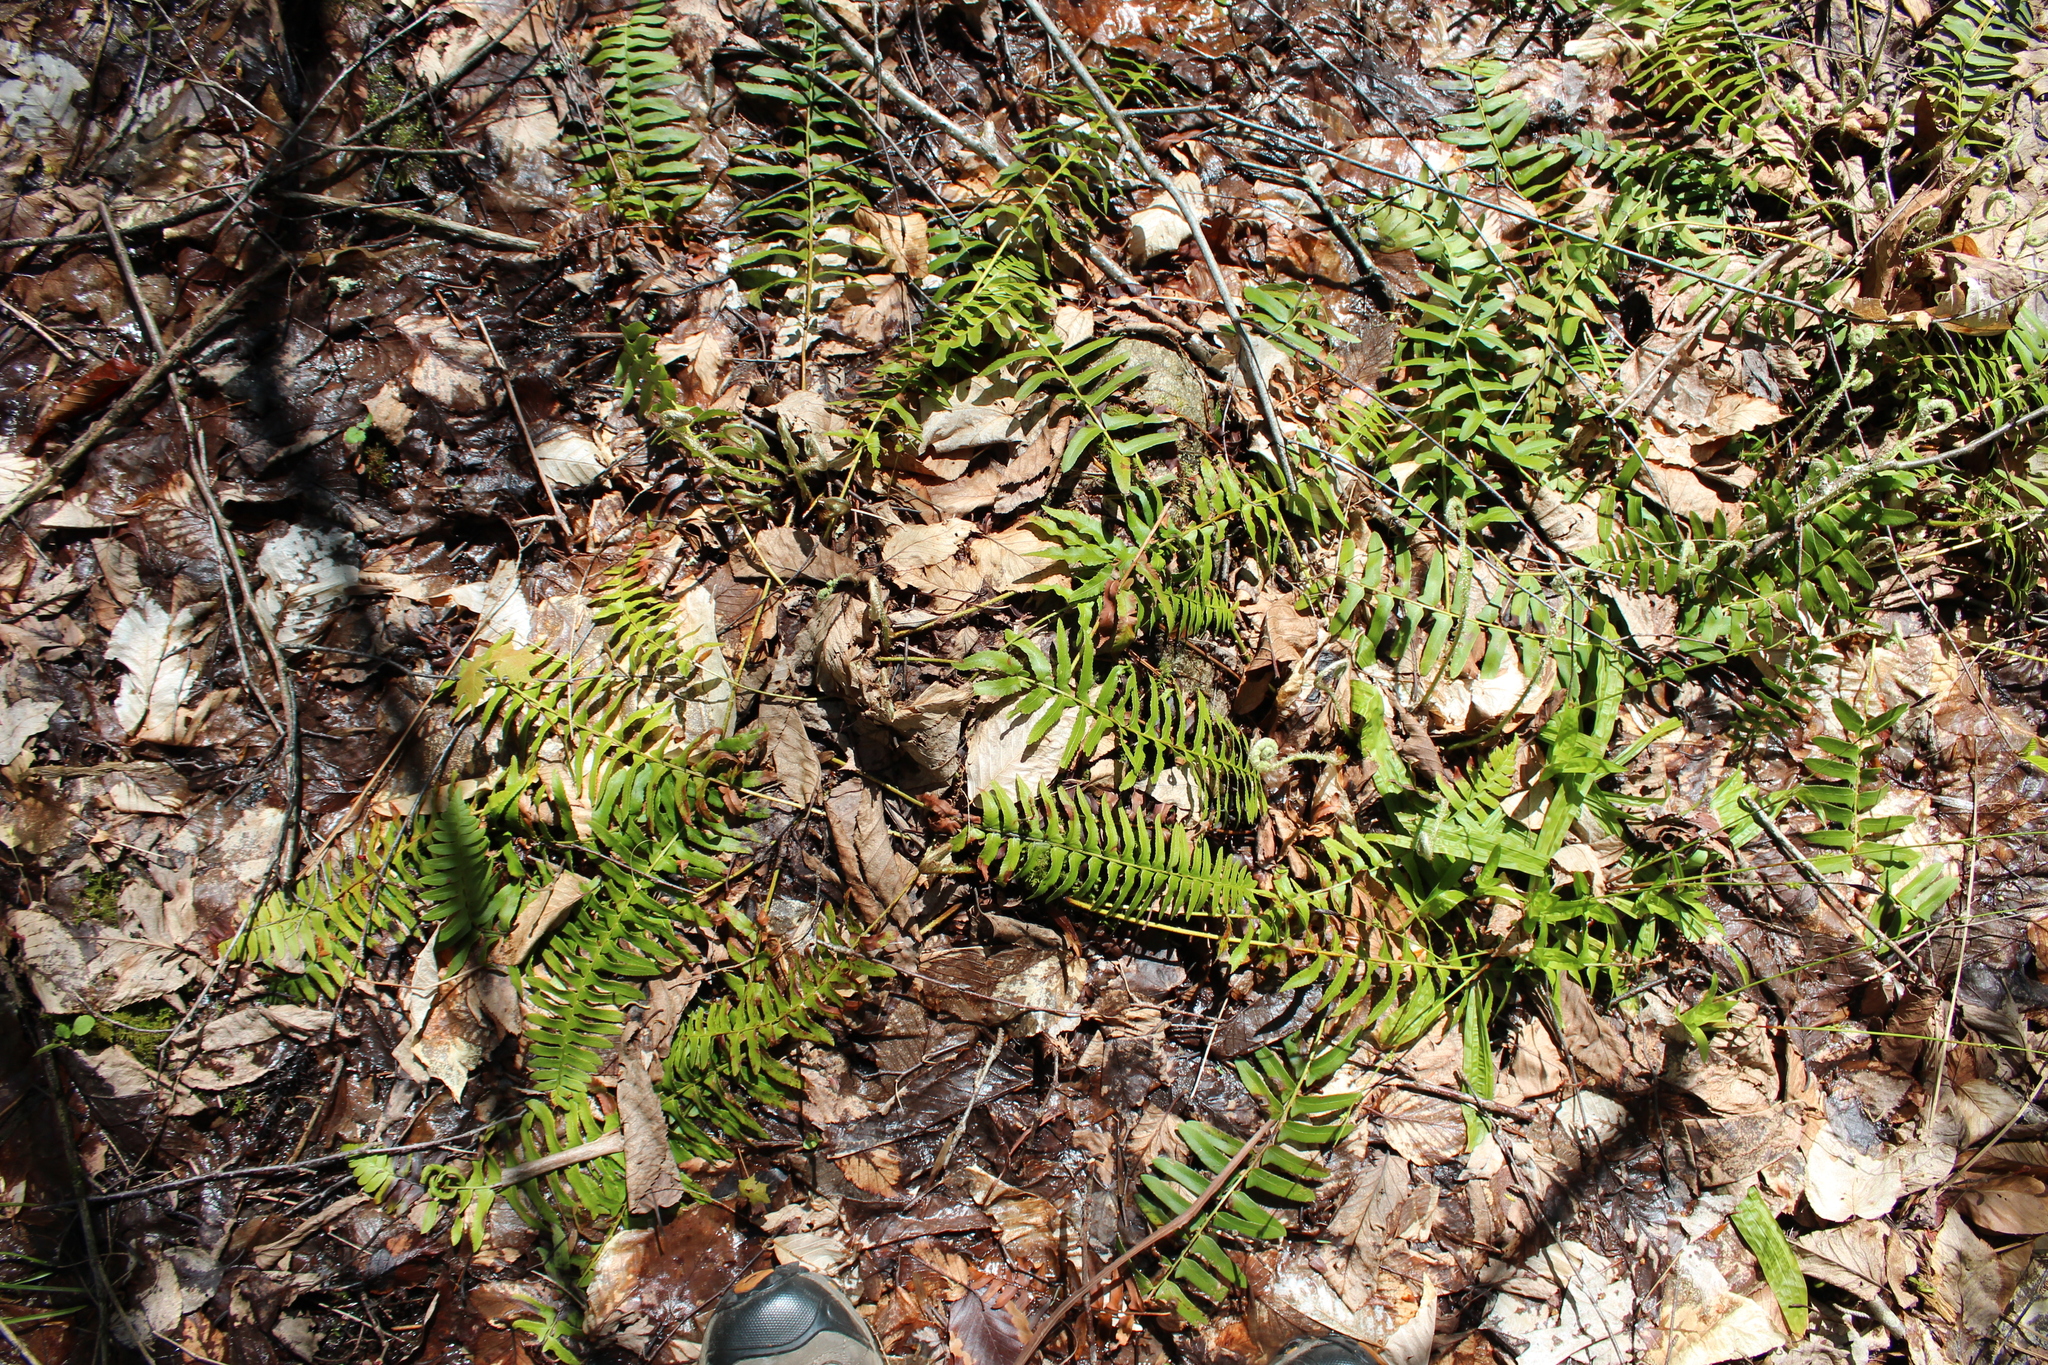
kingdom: Plantae
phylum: Tracheophyta
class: Polypodiopsida
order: Polypodiales
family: Dryopteridaceae
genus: Polystichum
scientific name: Polystichum acrostichoides
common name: Christmas fern
